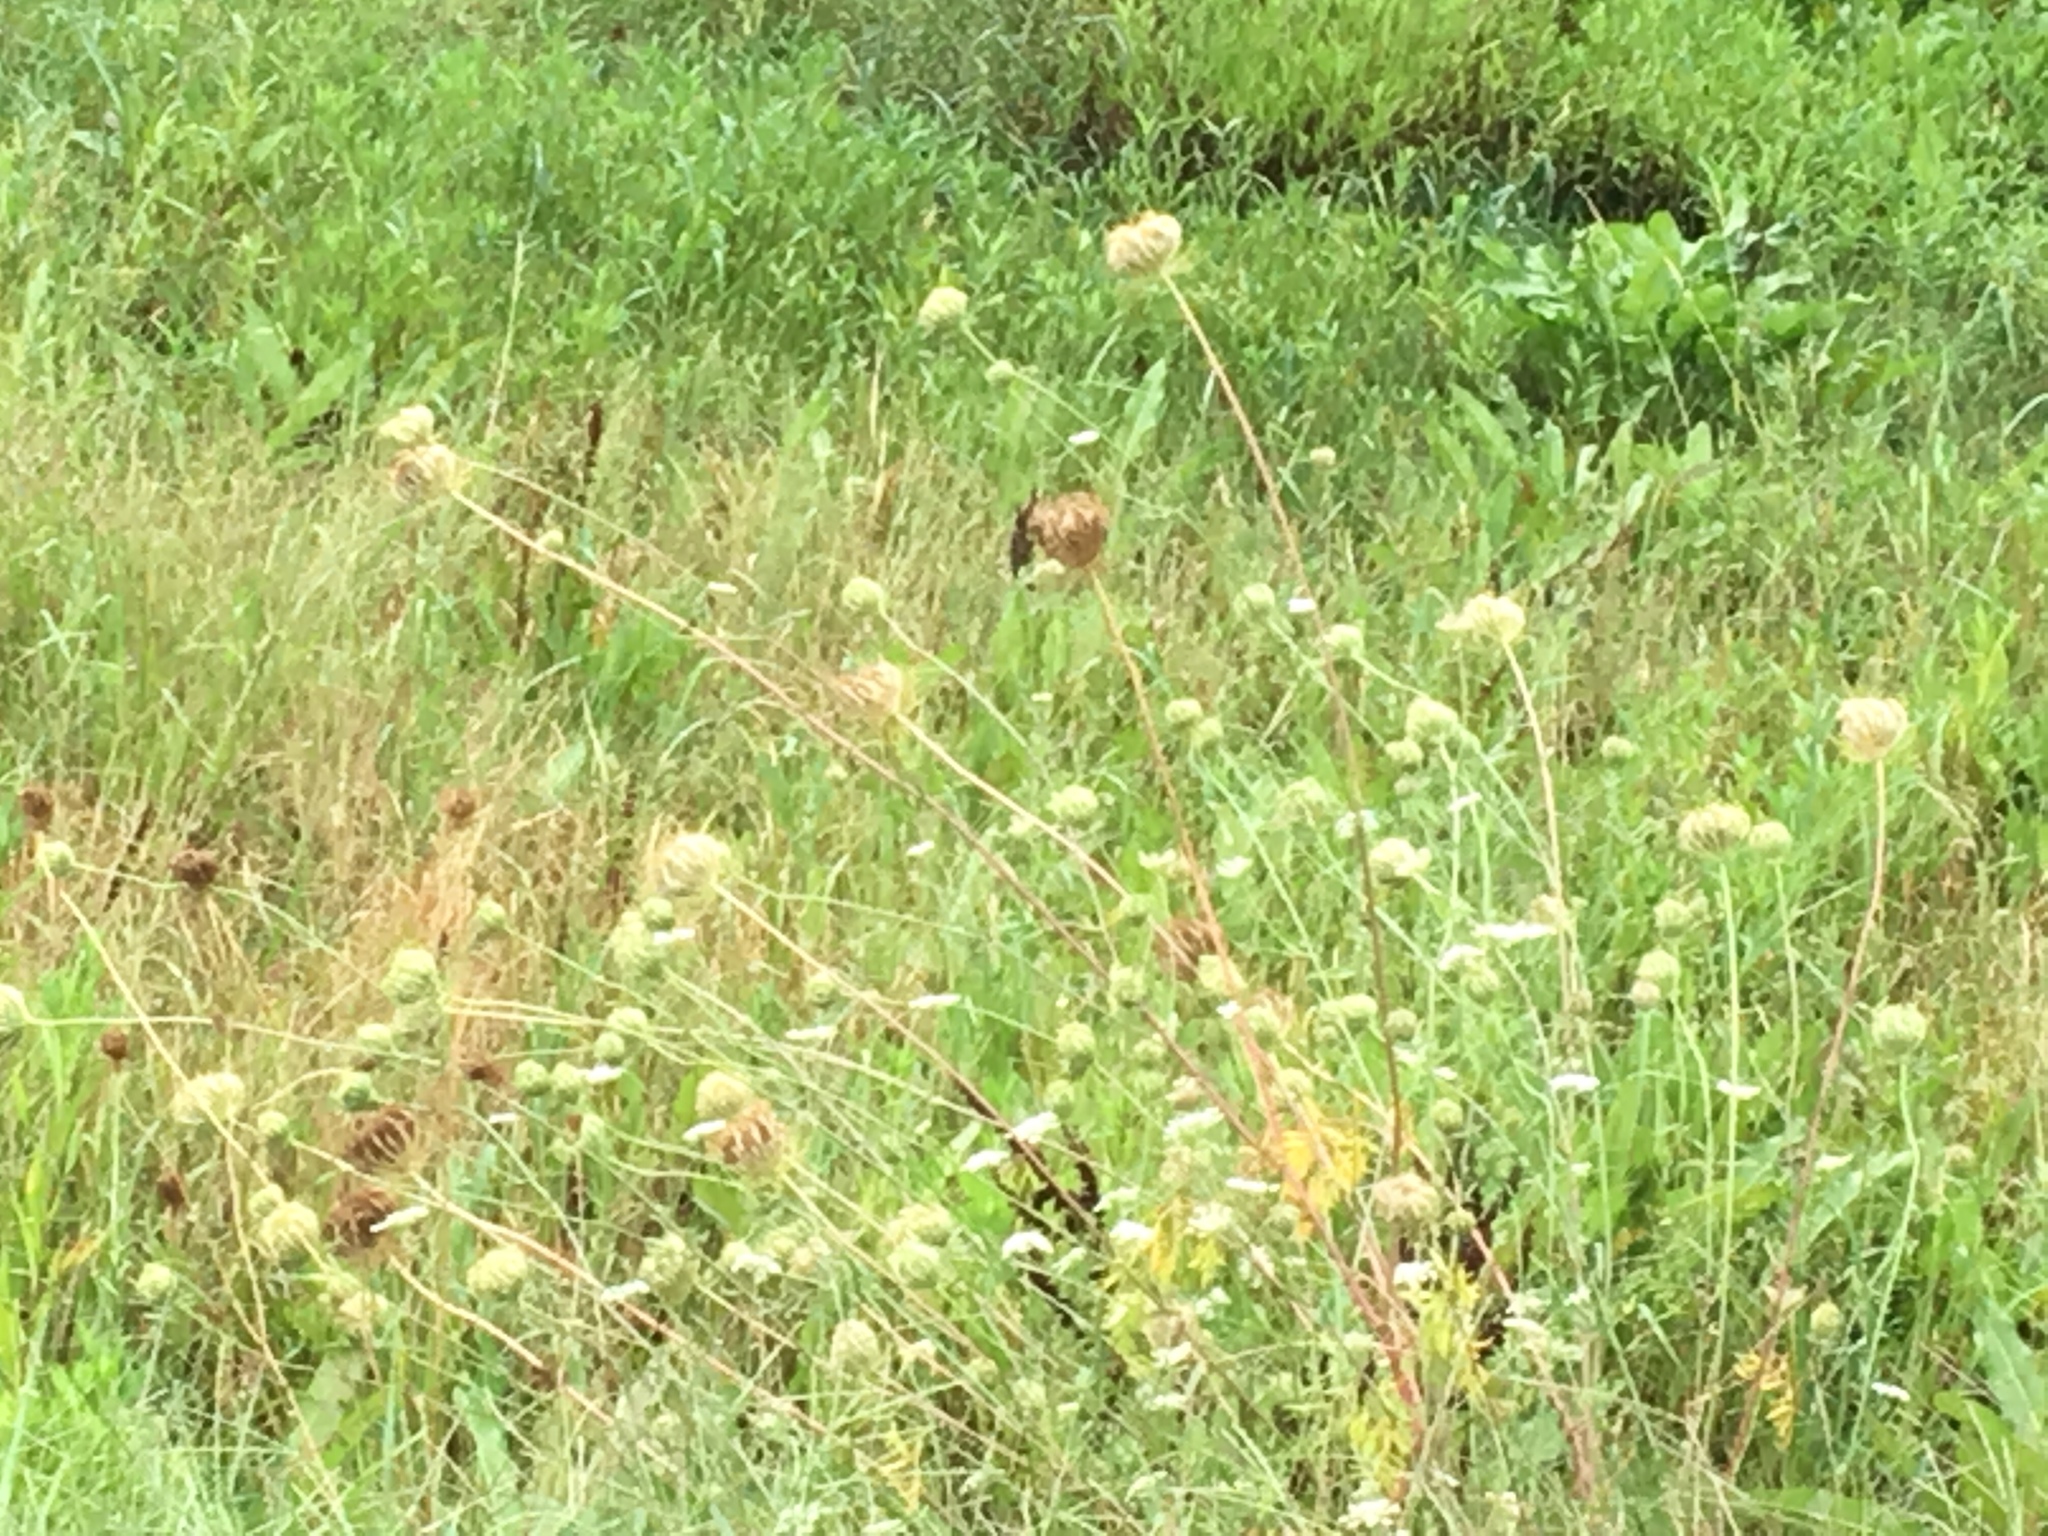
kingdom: Plantae
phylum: Tracheophyta
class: Magnoliopsida
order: Apiales
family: Apiaceae
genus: Daucus
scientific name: Daucus carota
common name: Wild carrot
